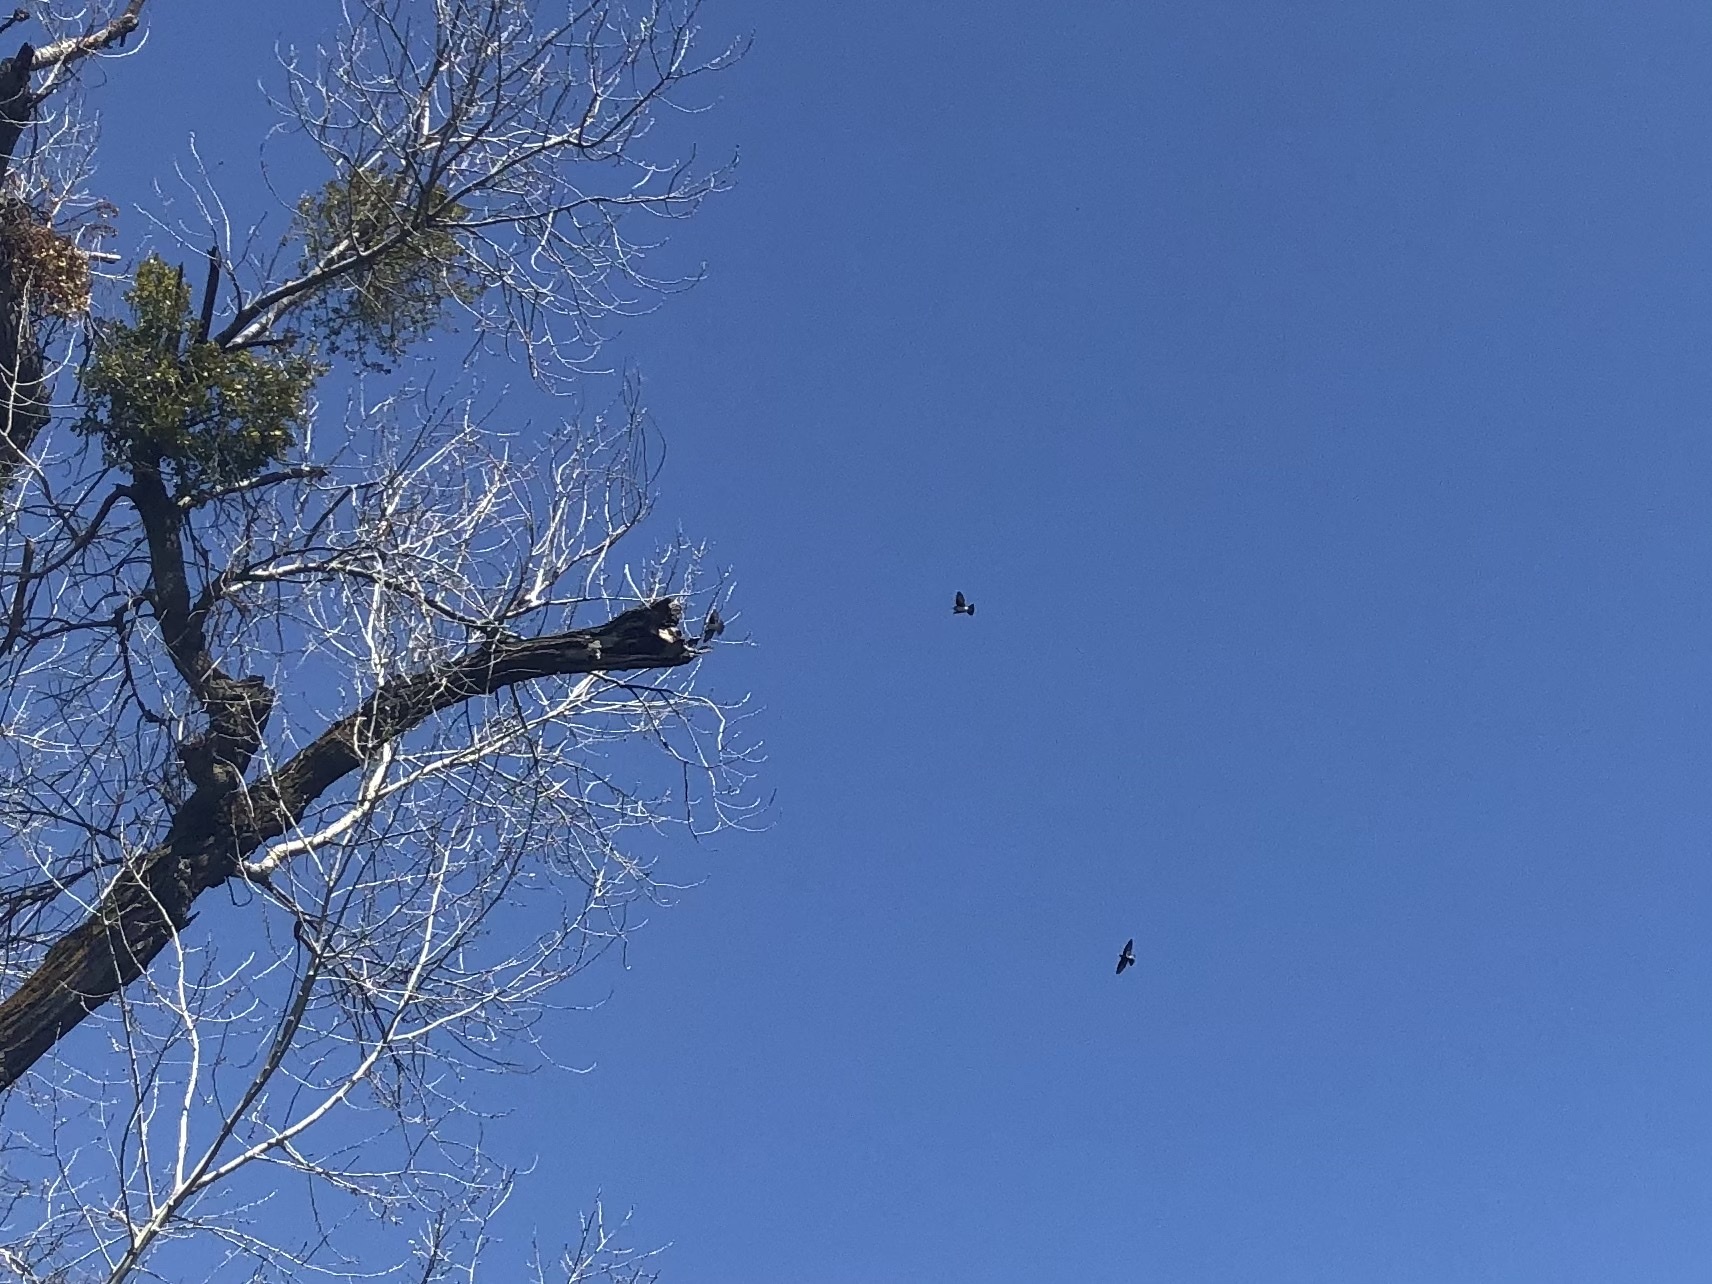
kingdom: Animalia
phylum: Chordata
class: Aves
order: Passeriformes
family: Hirundinidae
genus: Tachycineta
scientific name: Tachycineta bicolor
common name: Tree swallow
